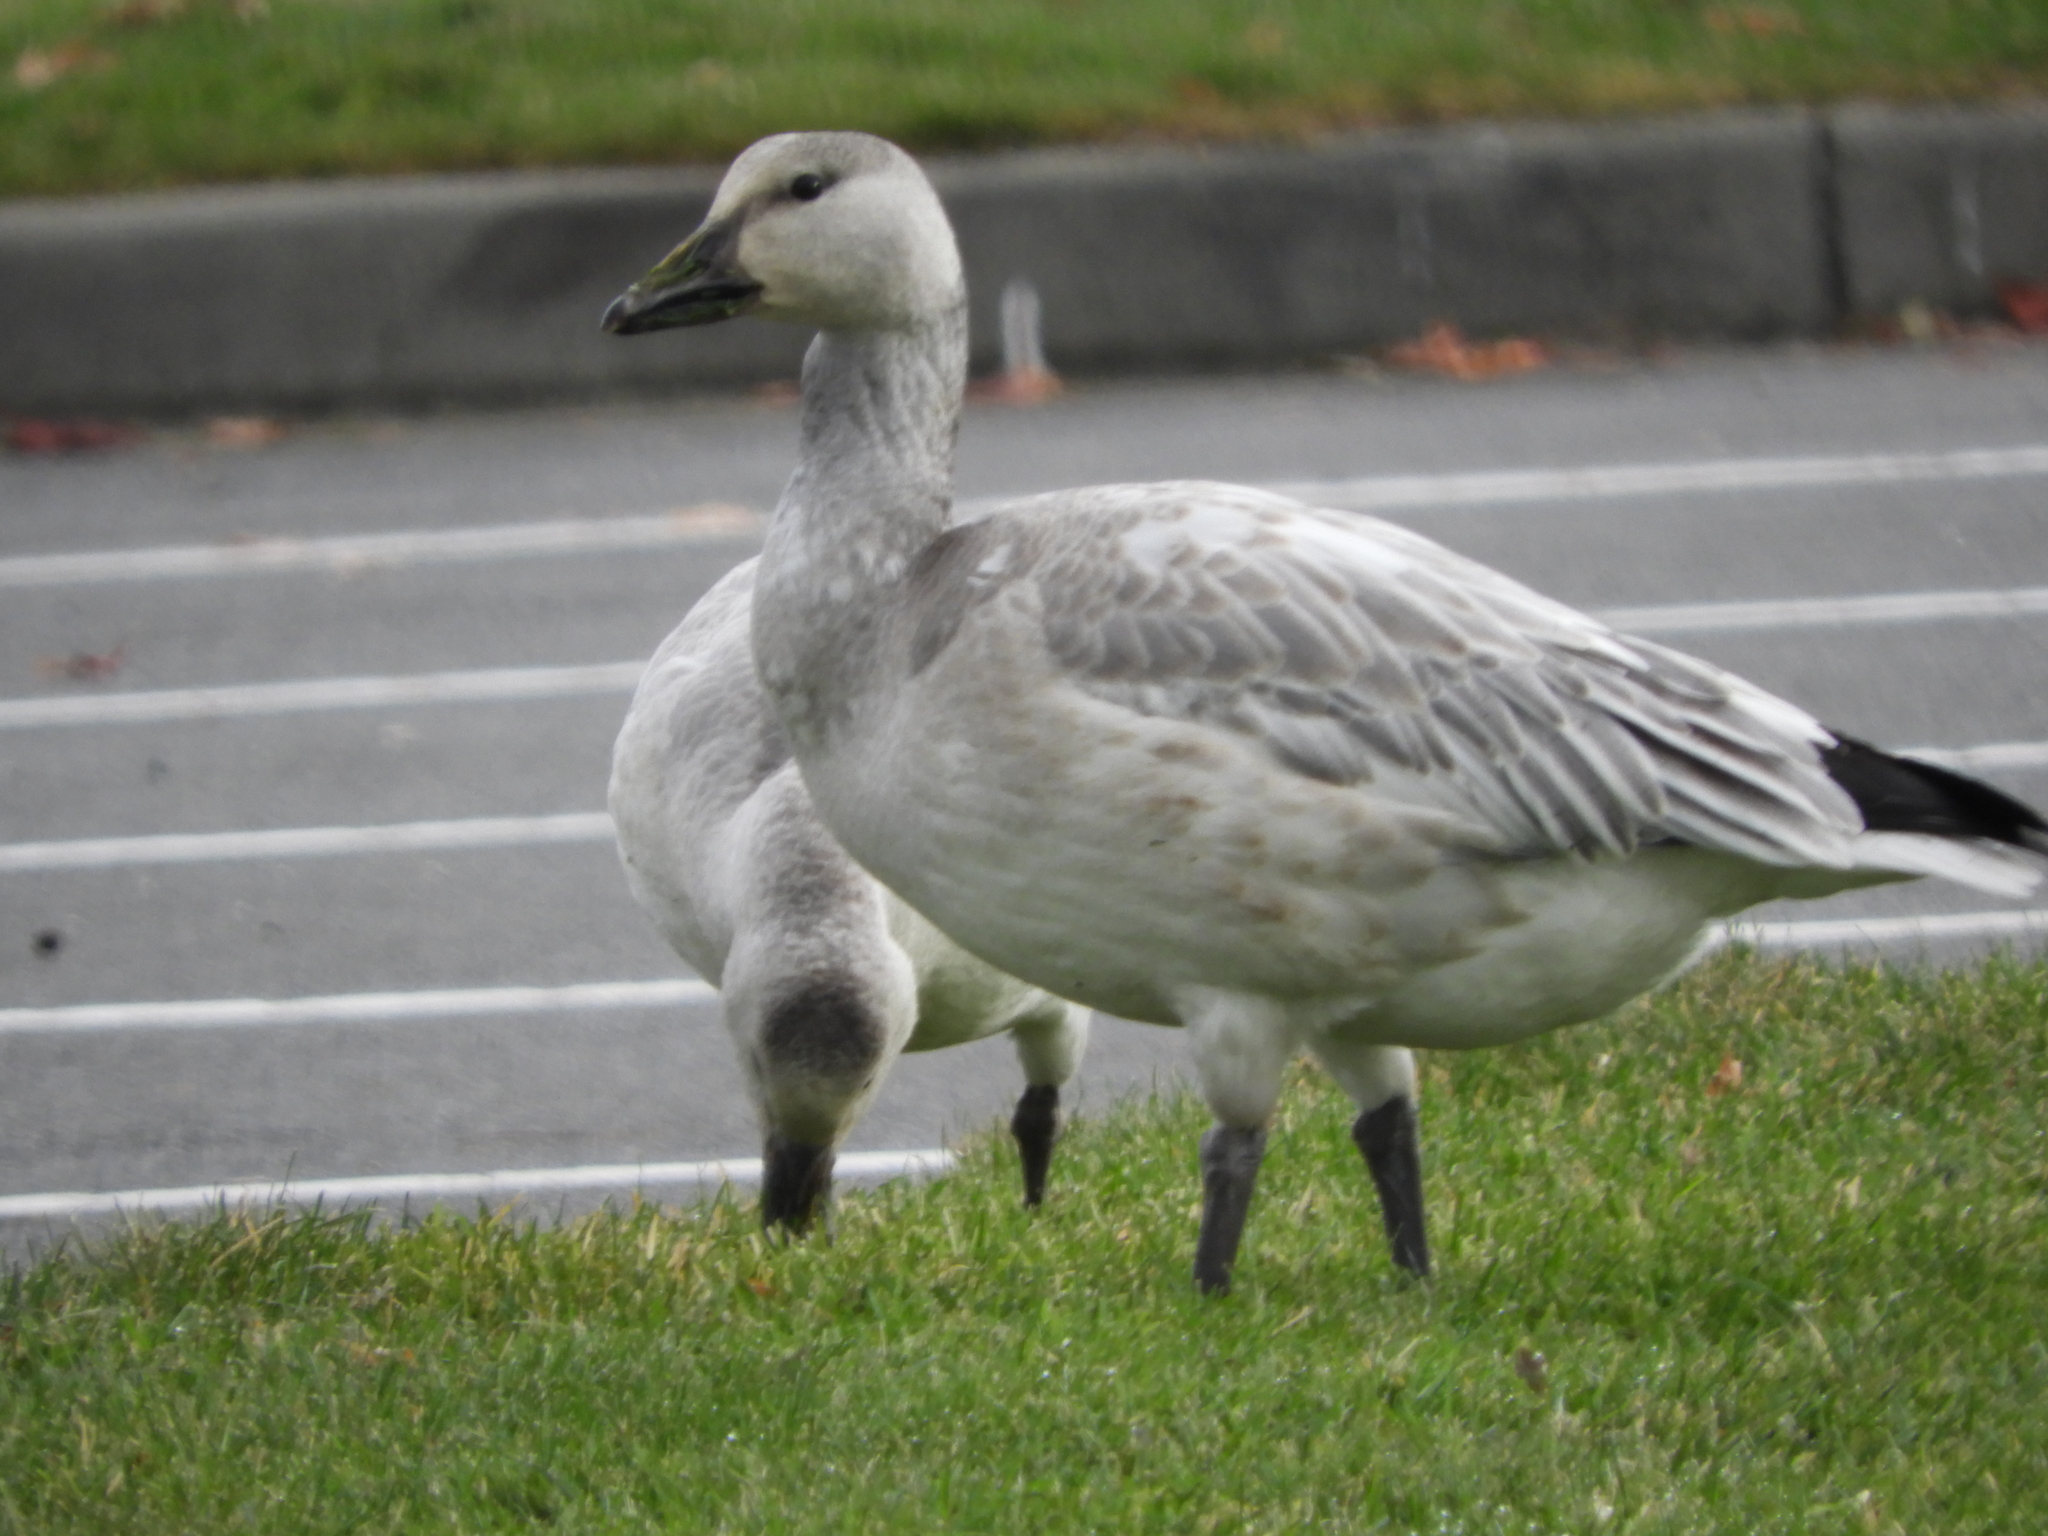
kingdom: Animalia
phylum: Chordata
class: Aves
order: Anseriformes
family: Anatidae
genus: Anser
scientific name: Anser caerulescens
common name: Snow goose
